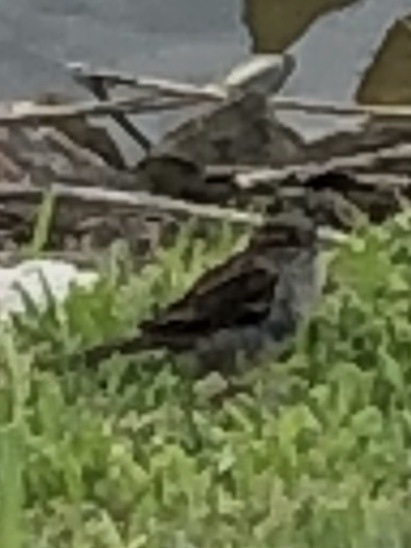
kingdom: Animalia
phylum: Chordata
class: Aves
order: Passeriformes
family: Passeridae
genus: Passer
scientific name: Passer domesticus
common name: House sparrow
